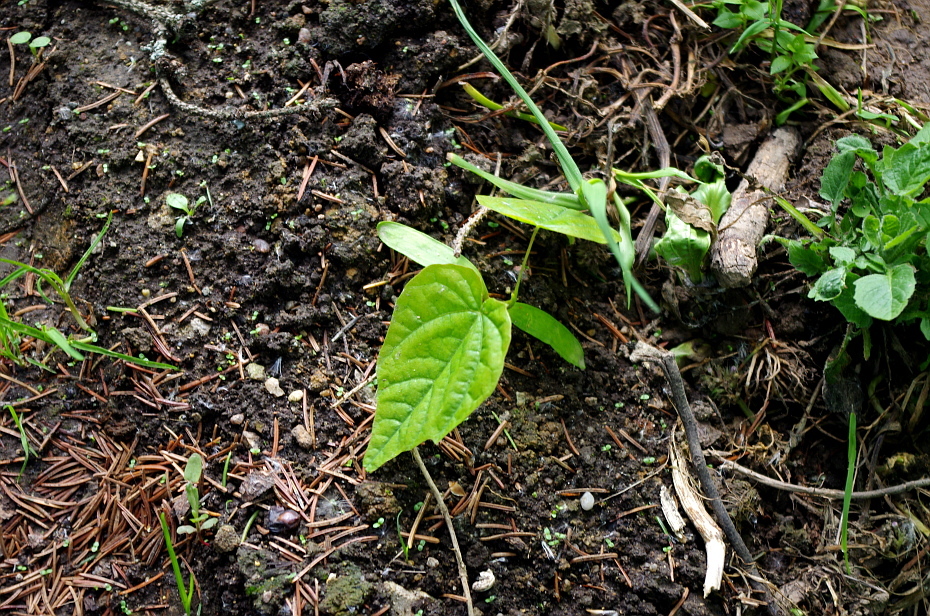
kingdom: Plantae
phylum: Tracheophyta
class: Magnoliopsida
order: Sapindales
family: Sapindaceae
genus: Acer
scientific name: Acer platanoides
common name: Norway maple
